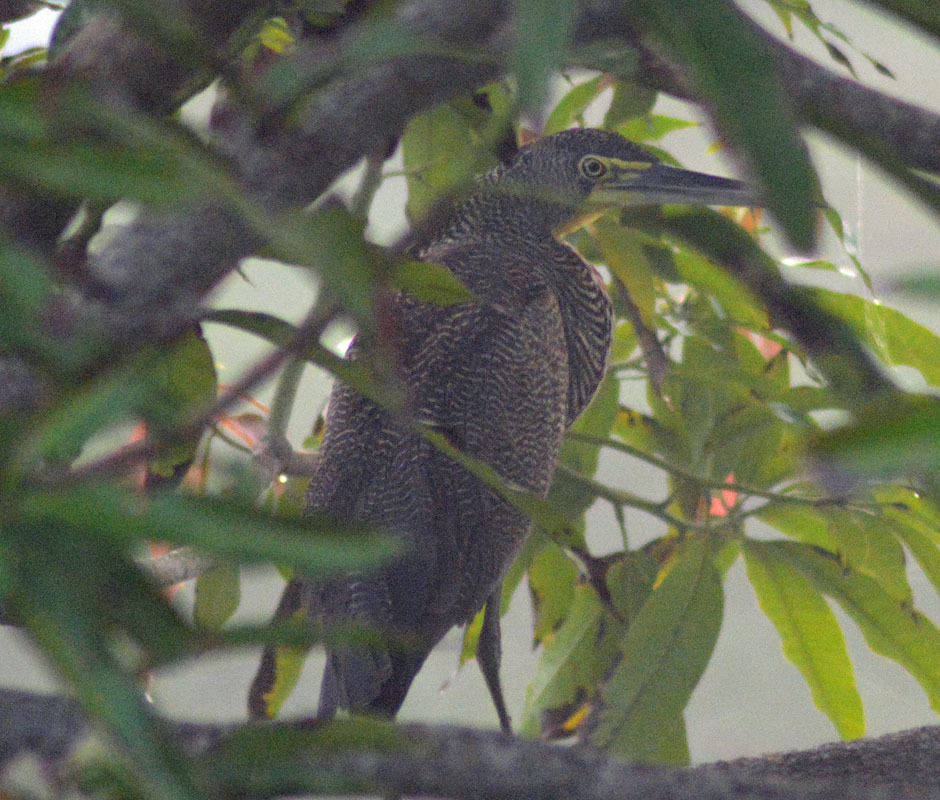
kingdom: Animalia
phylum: Chordata
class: Aves
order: Pelecaniformes
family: Ardeidae
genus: Tigrisoma
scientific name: Tigrisoma mexicanum
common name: Bare-throated tiger-heron
